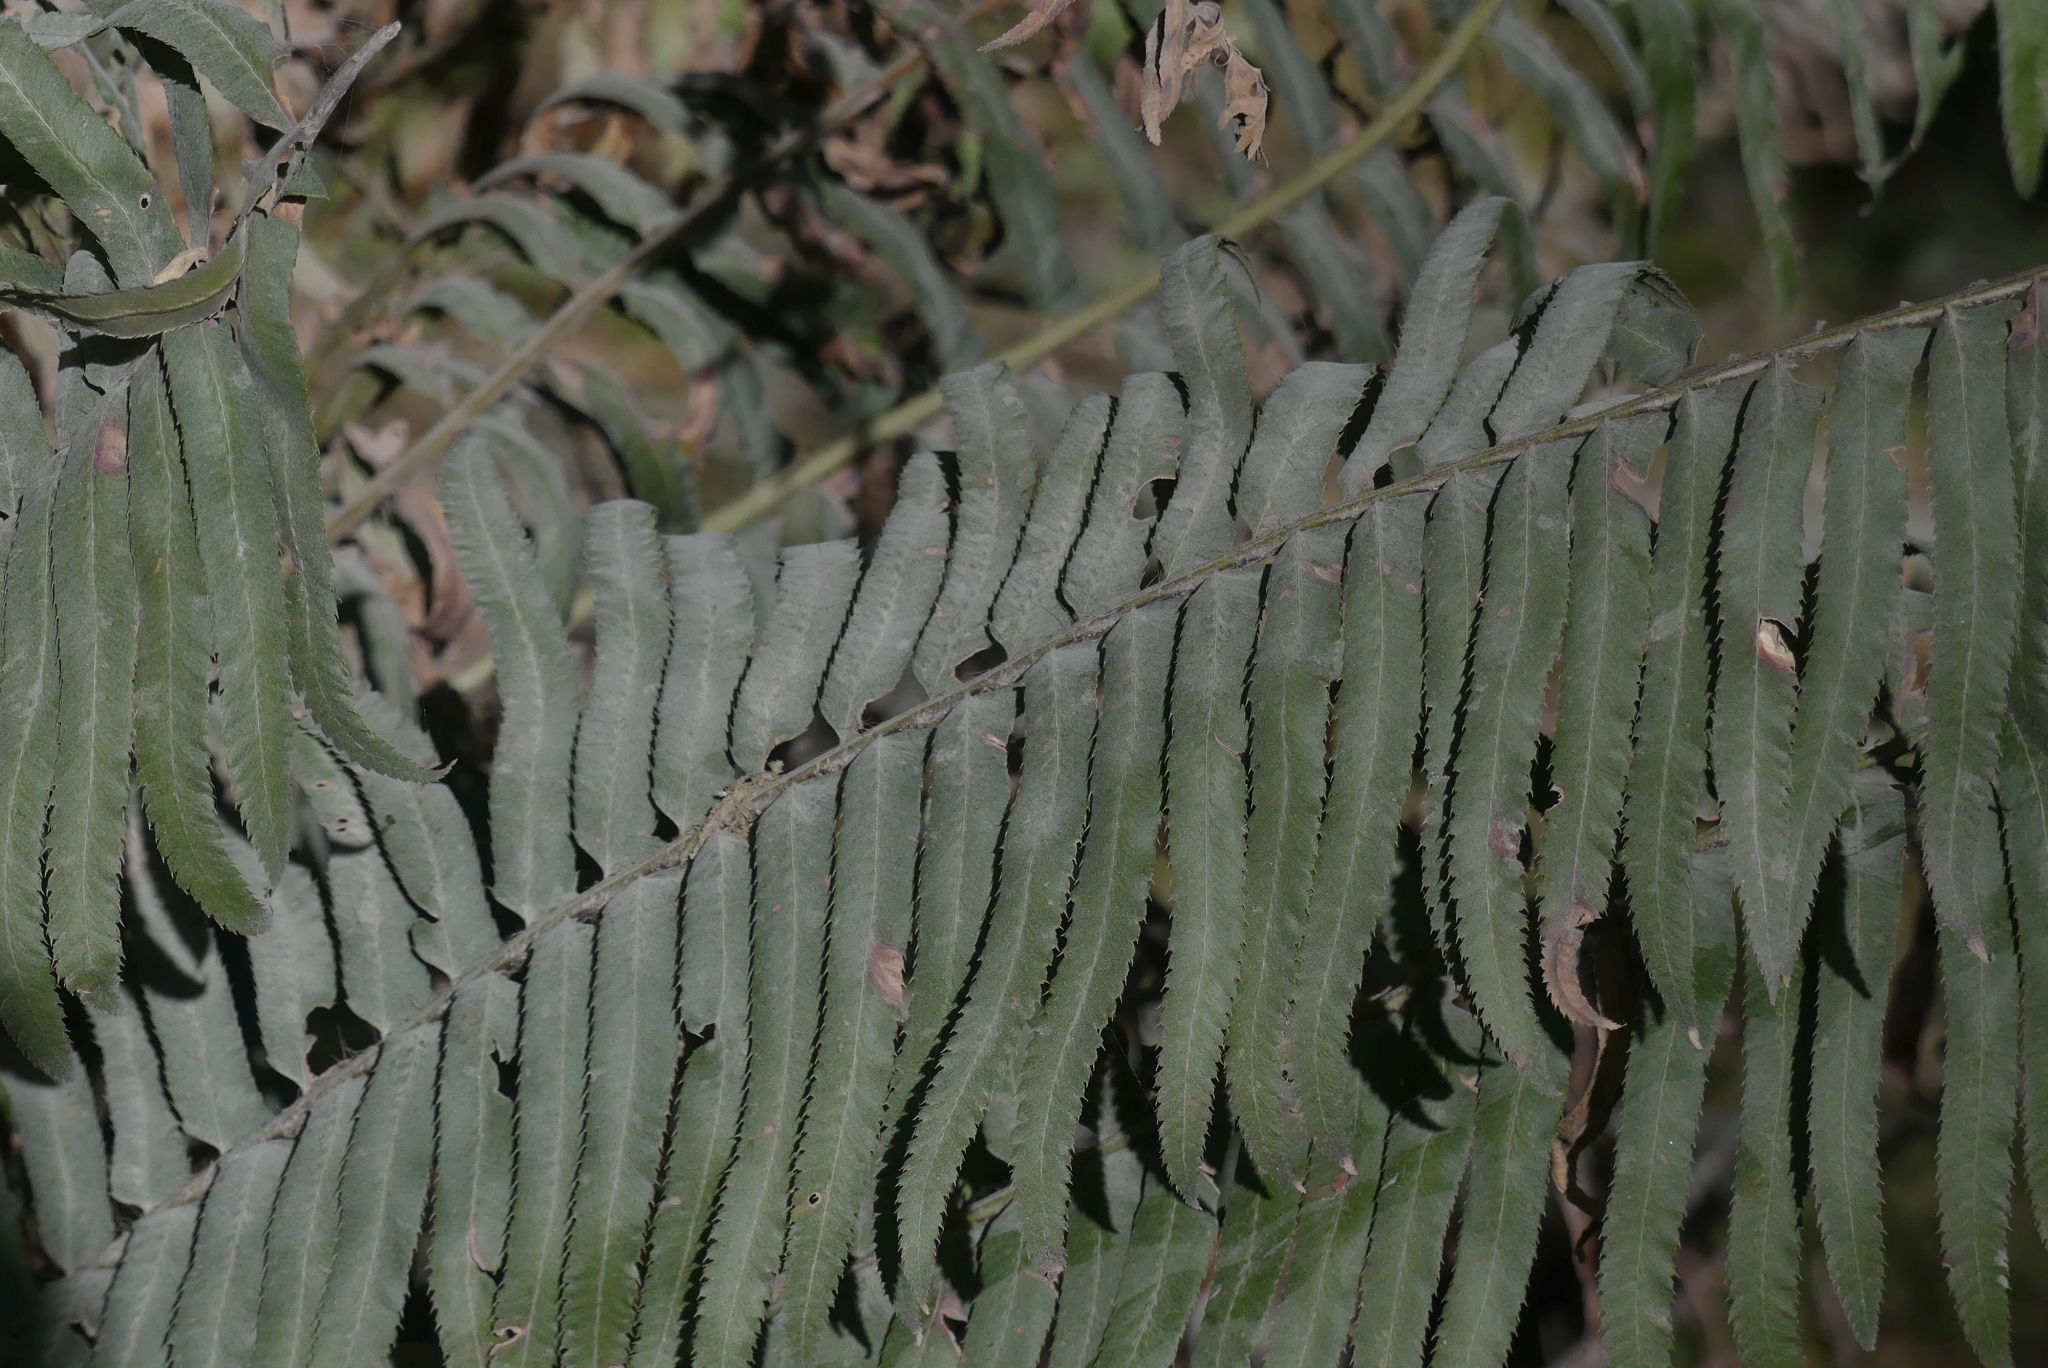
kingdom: Plantae
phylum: Tracheophyta
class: Polypodiopsida
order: Polypodiales
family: Dryopteridaceae
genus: Polystichum
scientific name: Polystichum munitum
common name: Western sword-fern
